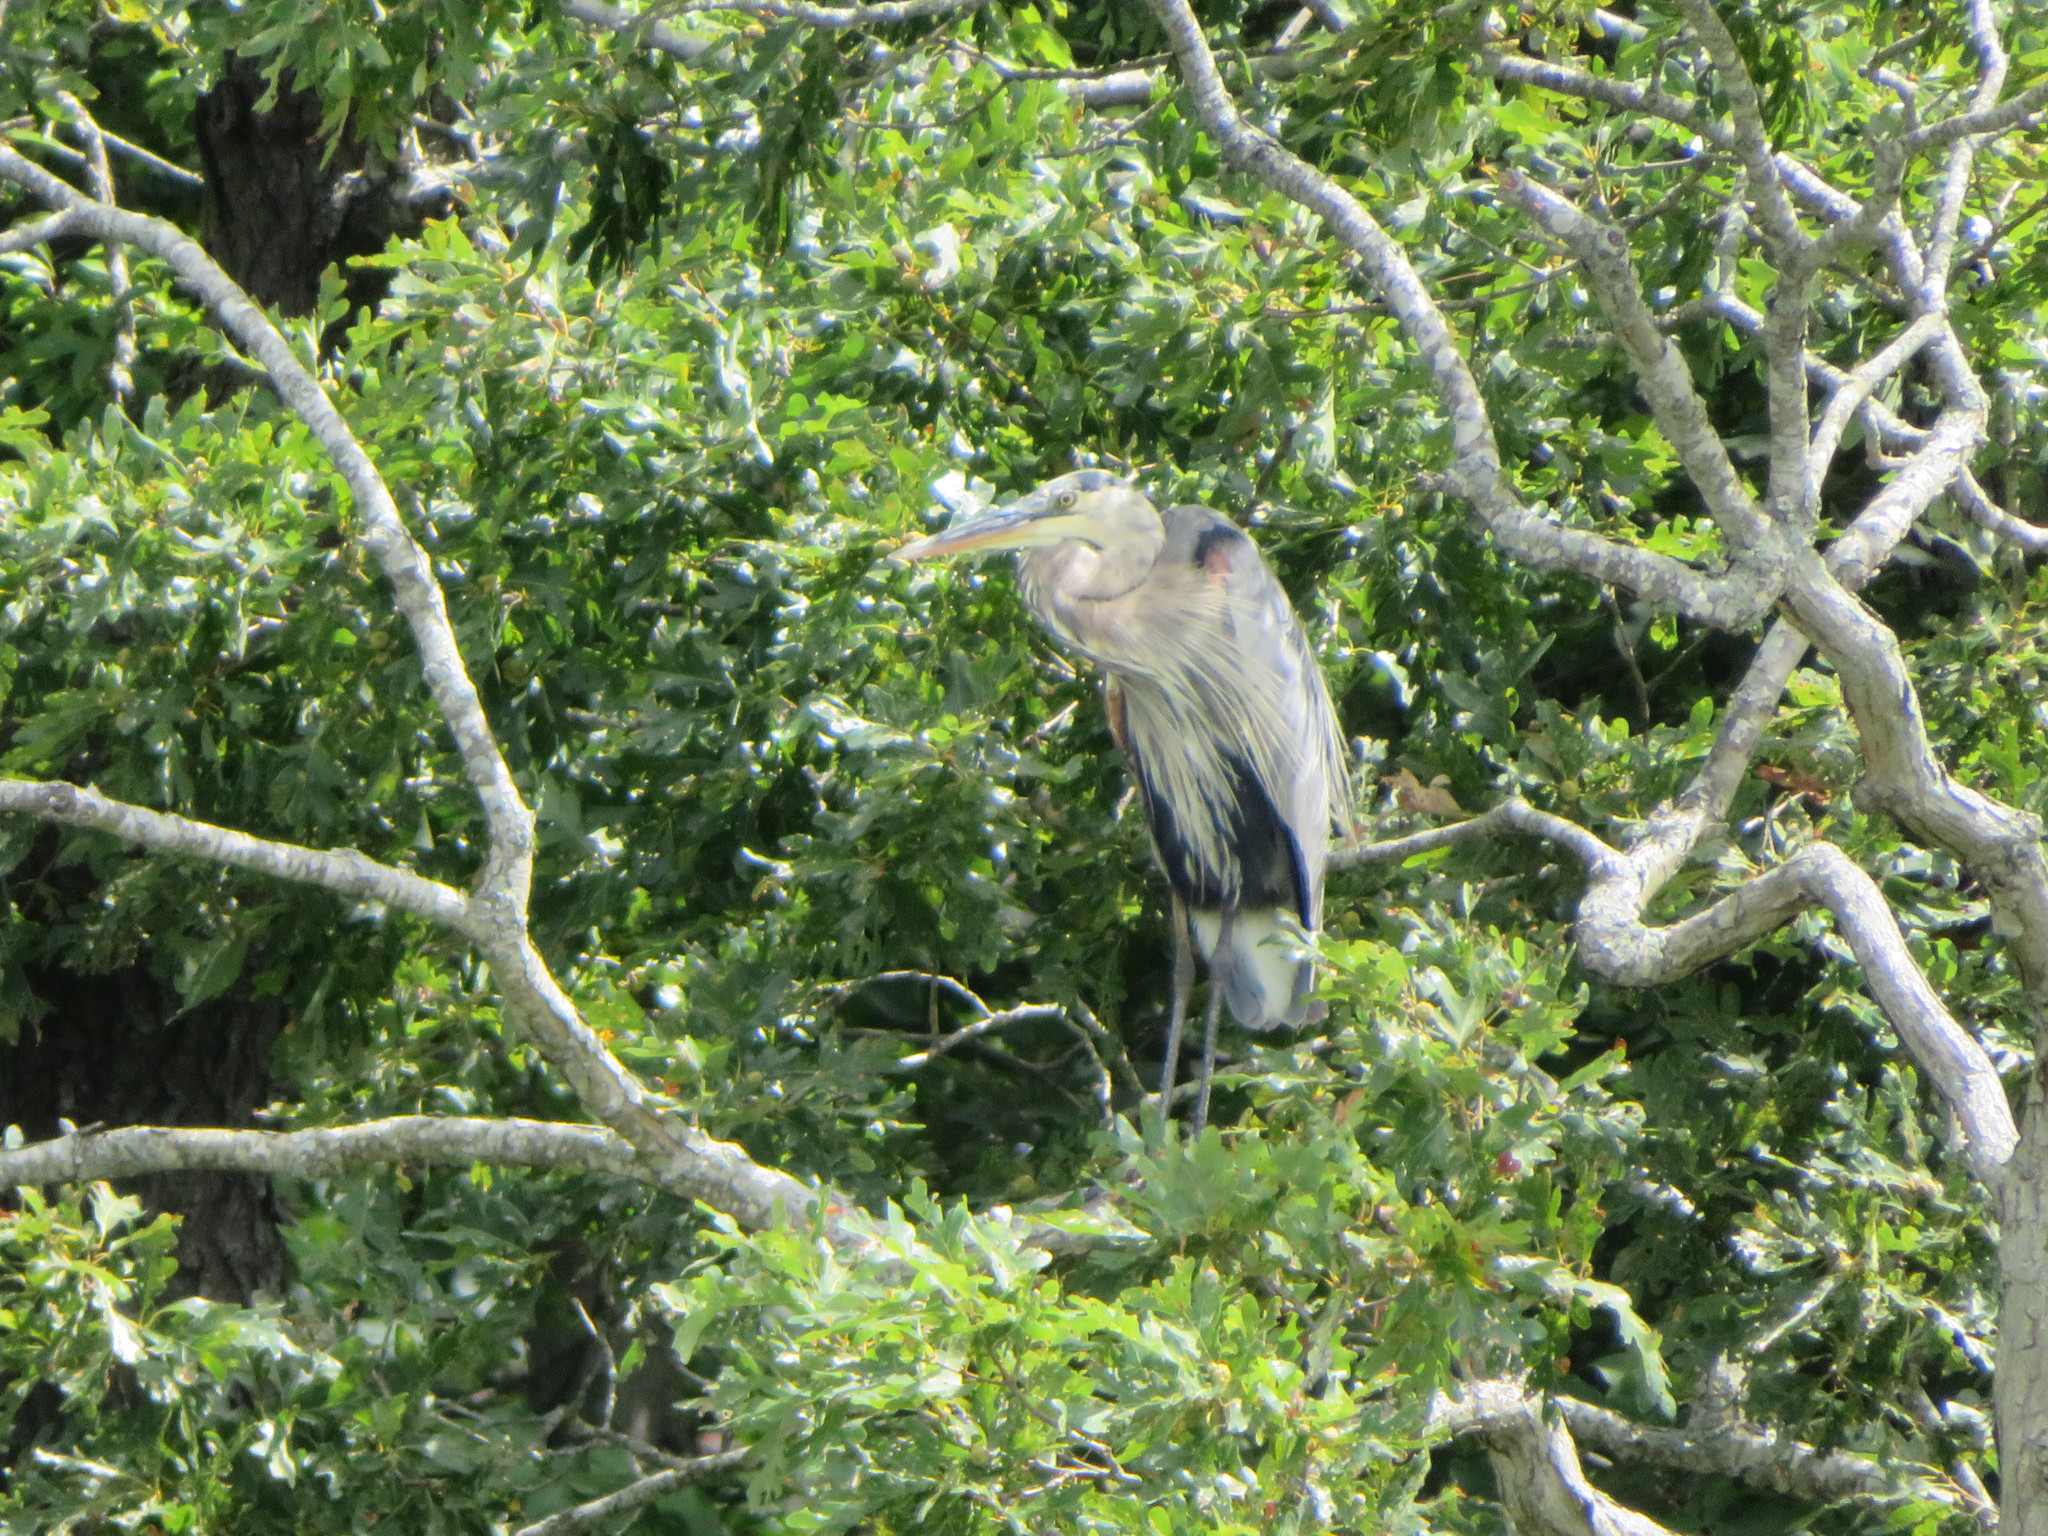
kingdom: Animalia
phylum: Chordata
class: Aves
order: Pelecaniformes
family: Ardeidae
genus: Ardea
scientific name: Ardea herodias
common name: Great blue heron
